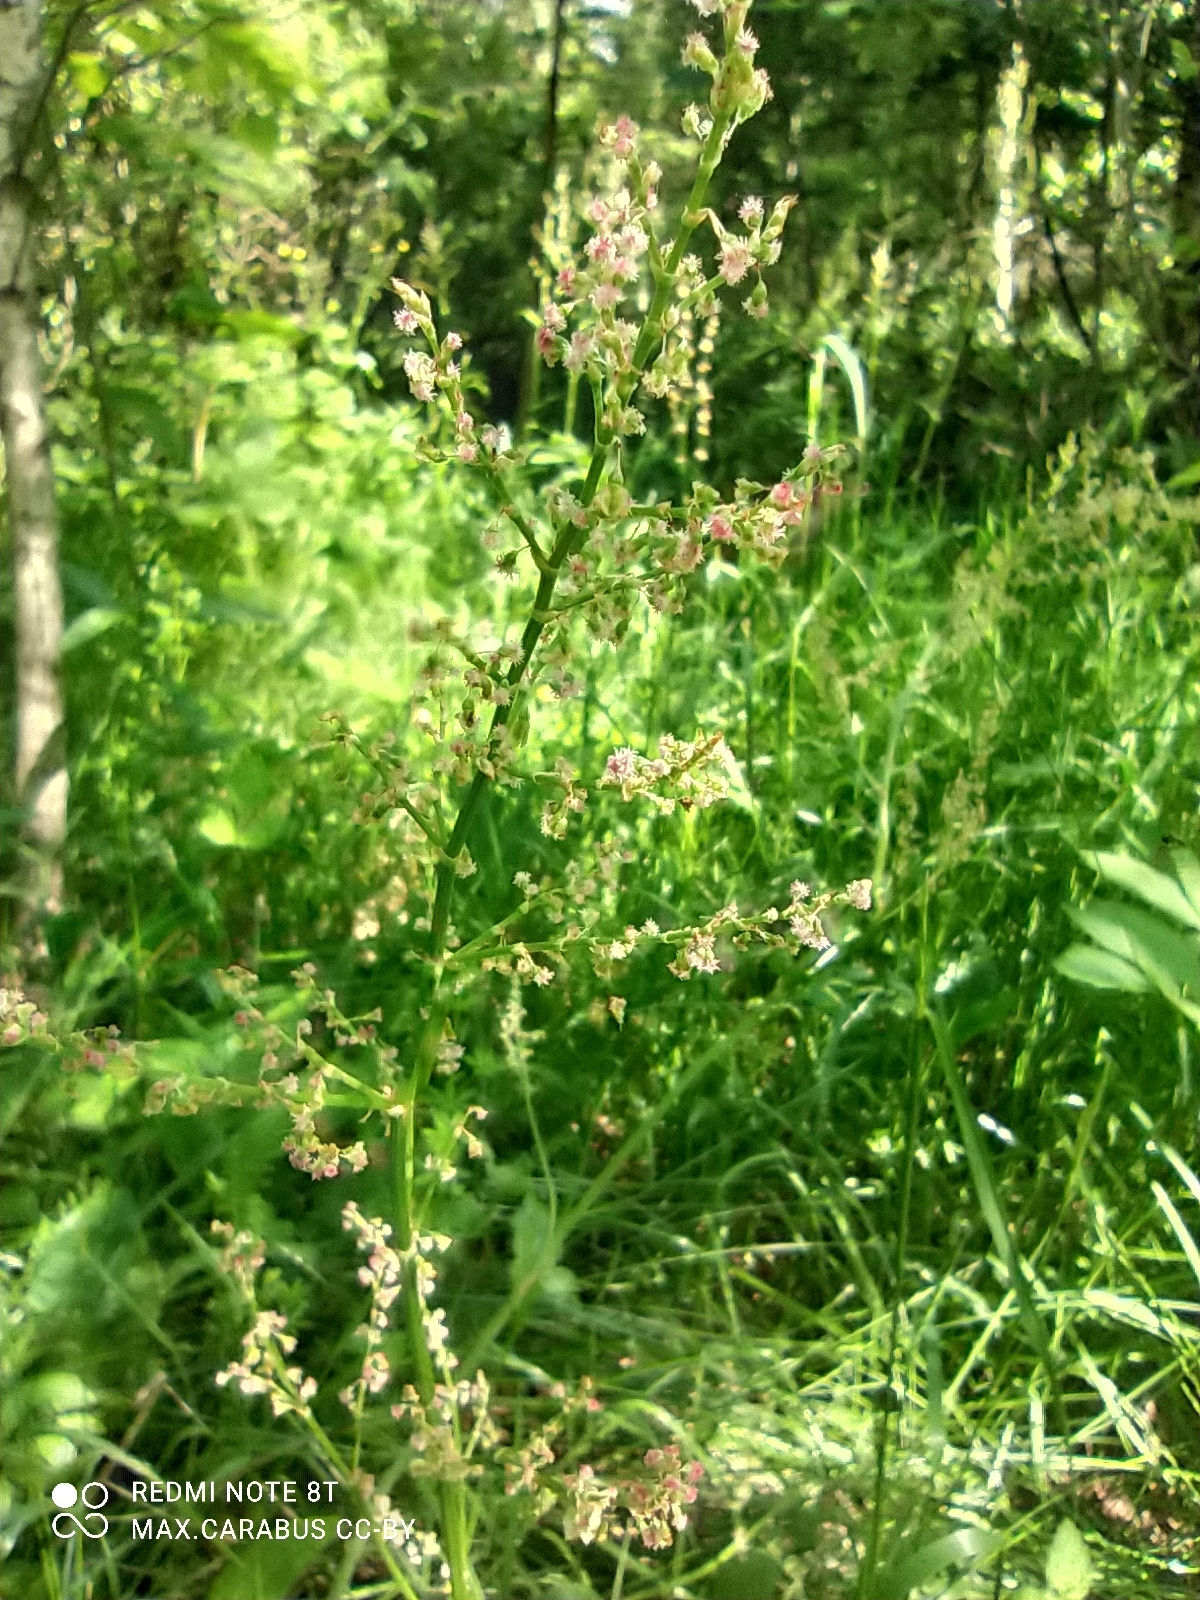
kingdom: Plantae
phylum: Tracheophyta
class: Magnoliopsida
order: Caryophyllales
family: Polygonaceae
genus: Rumex
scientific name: Rumex thyrsiflorus
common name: Garden sorrel
